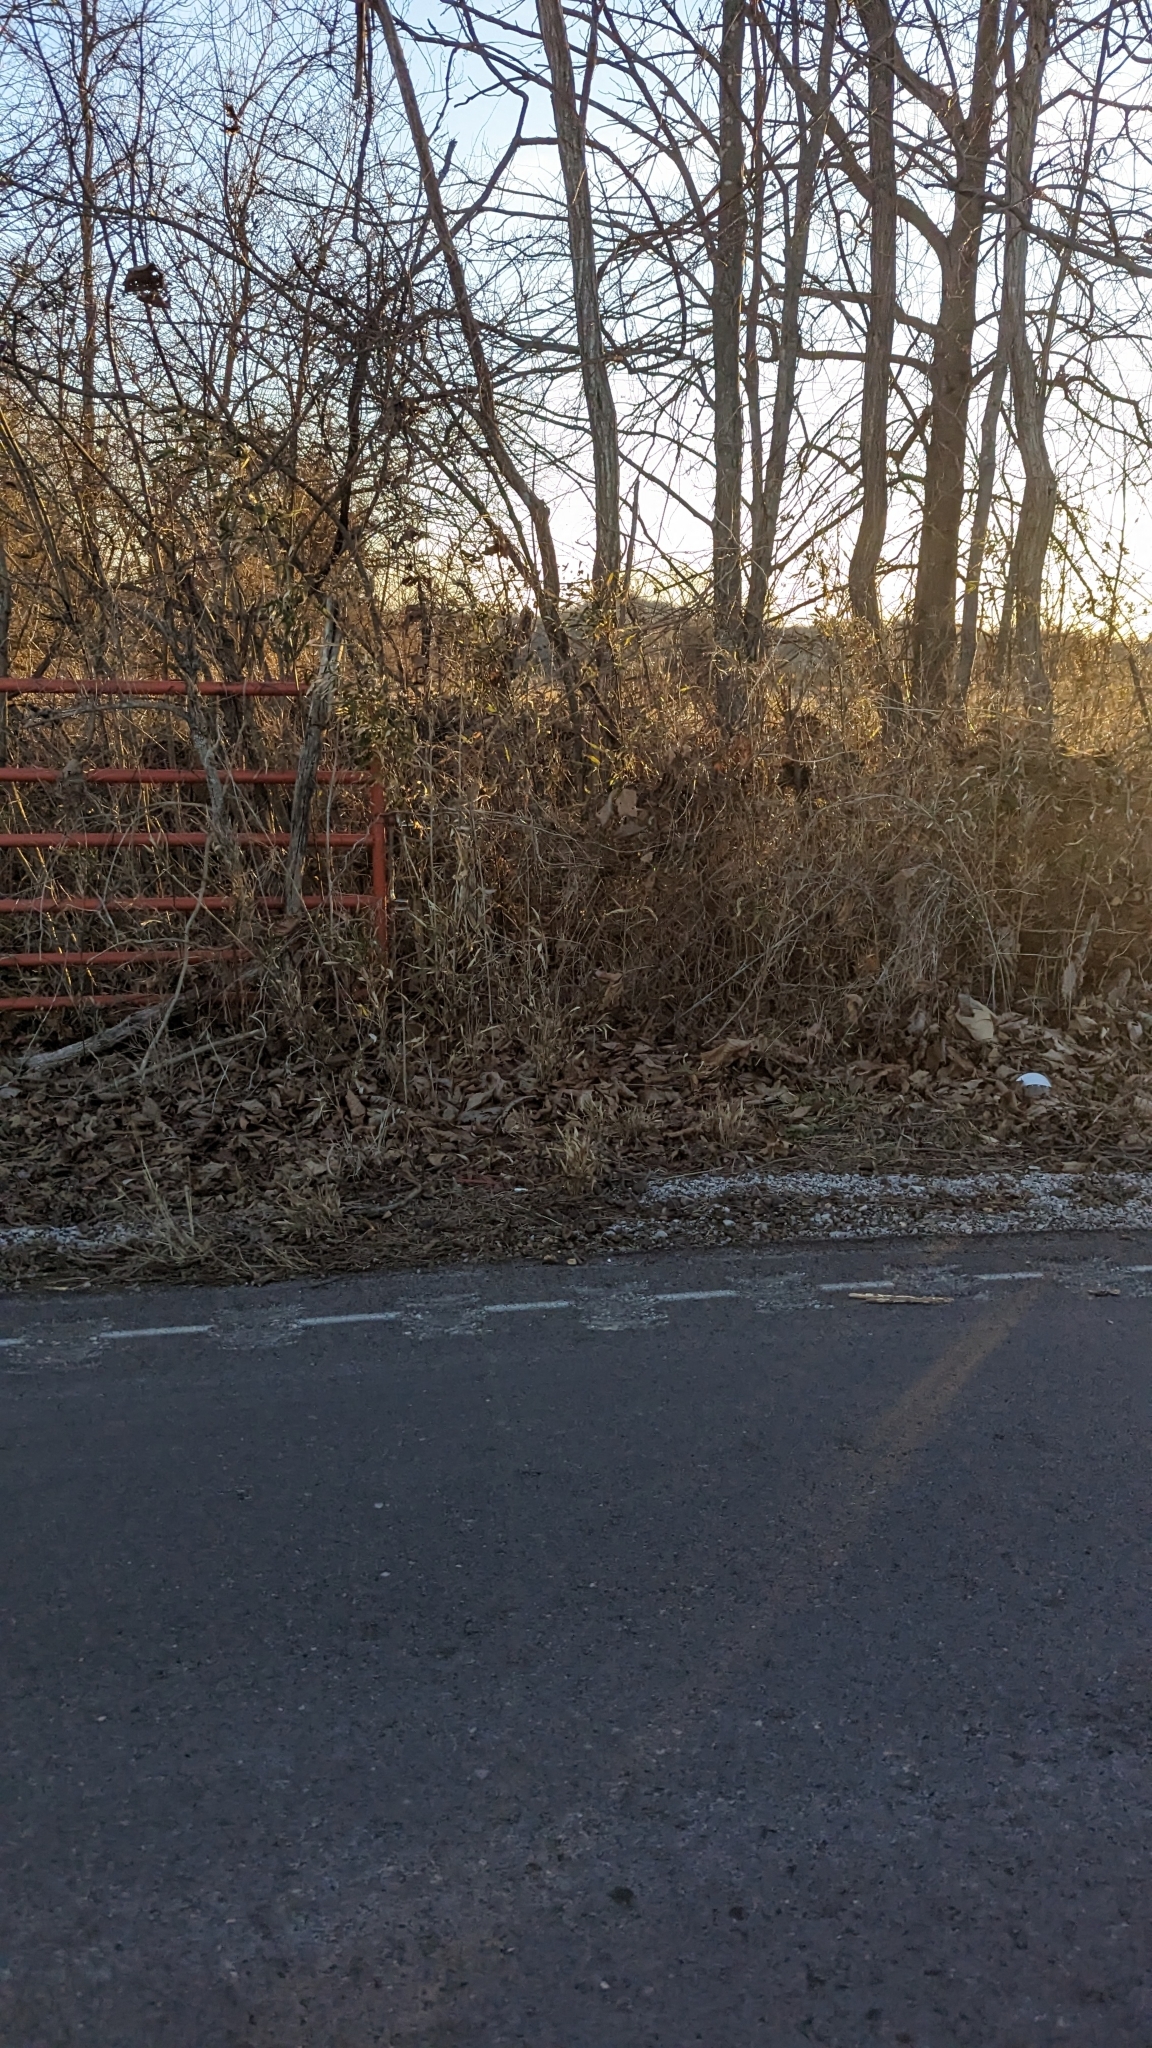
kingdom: Plantae
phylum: Tracheophyta
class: Liliopsida
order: Poales
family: Poaceae
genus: Arundinaria
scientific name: Arundinaria gigantea
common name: Giant cane
